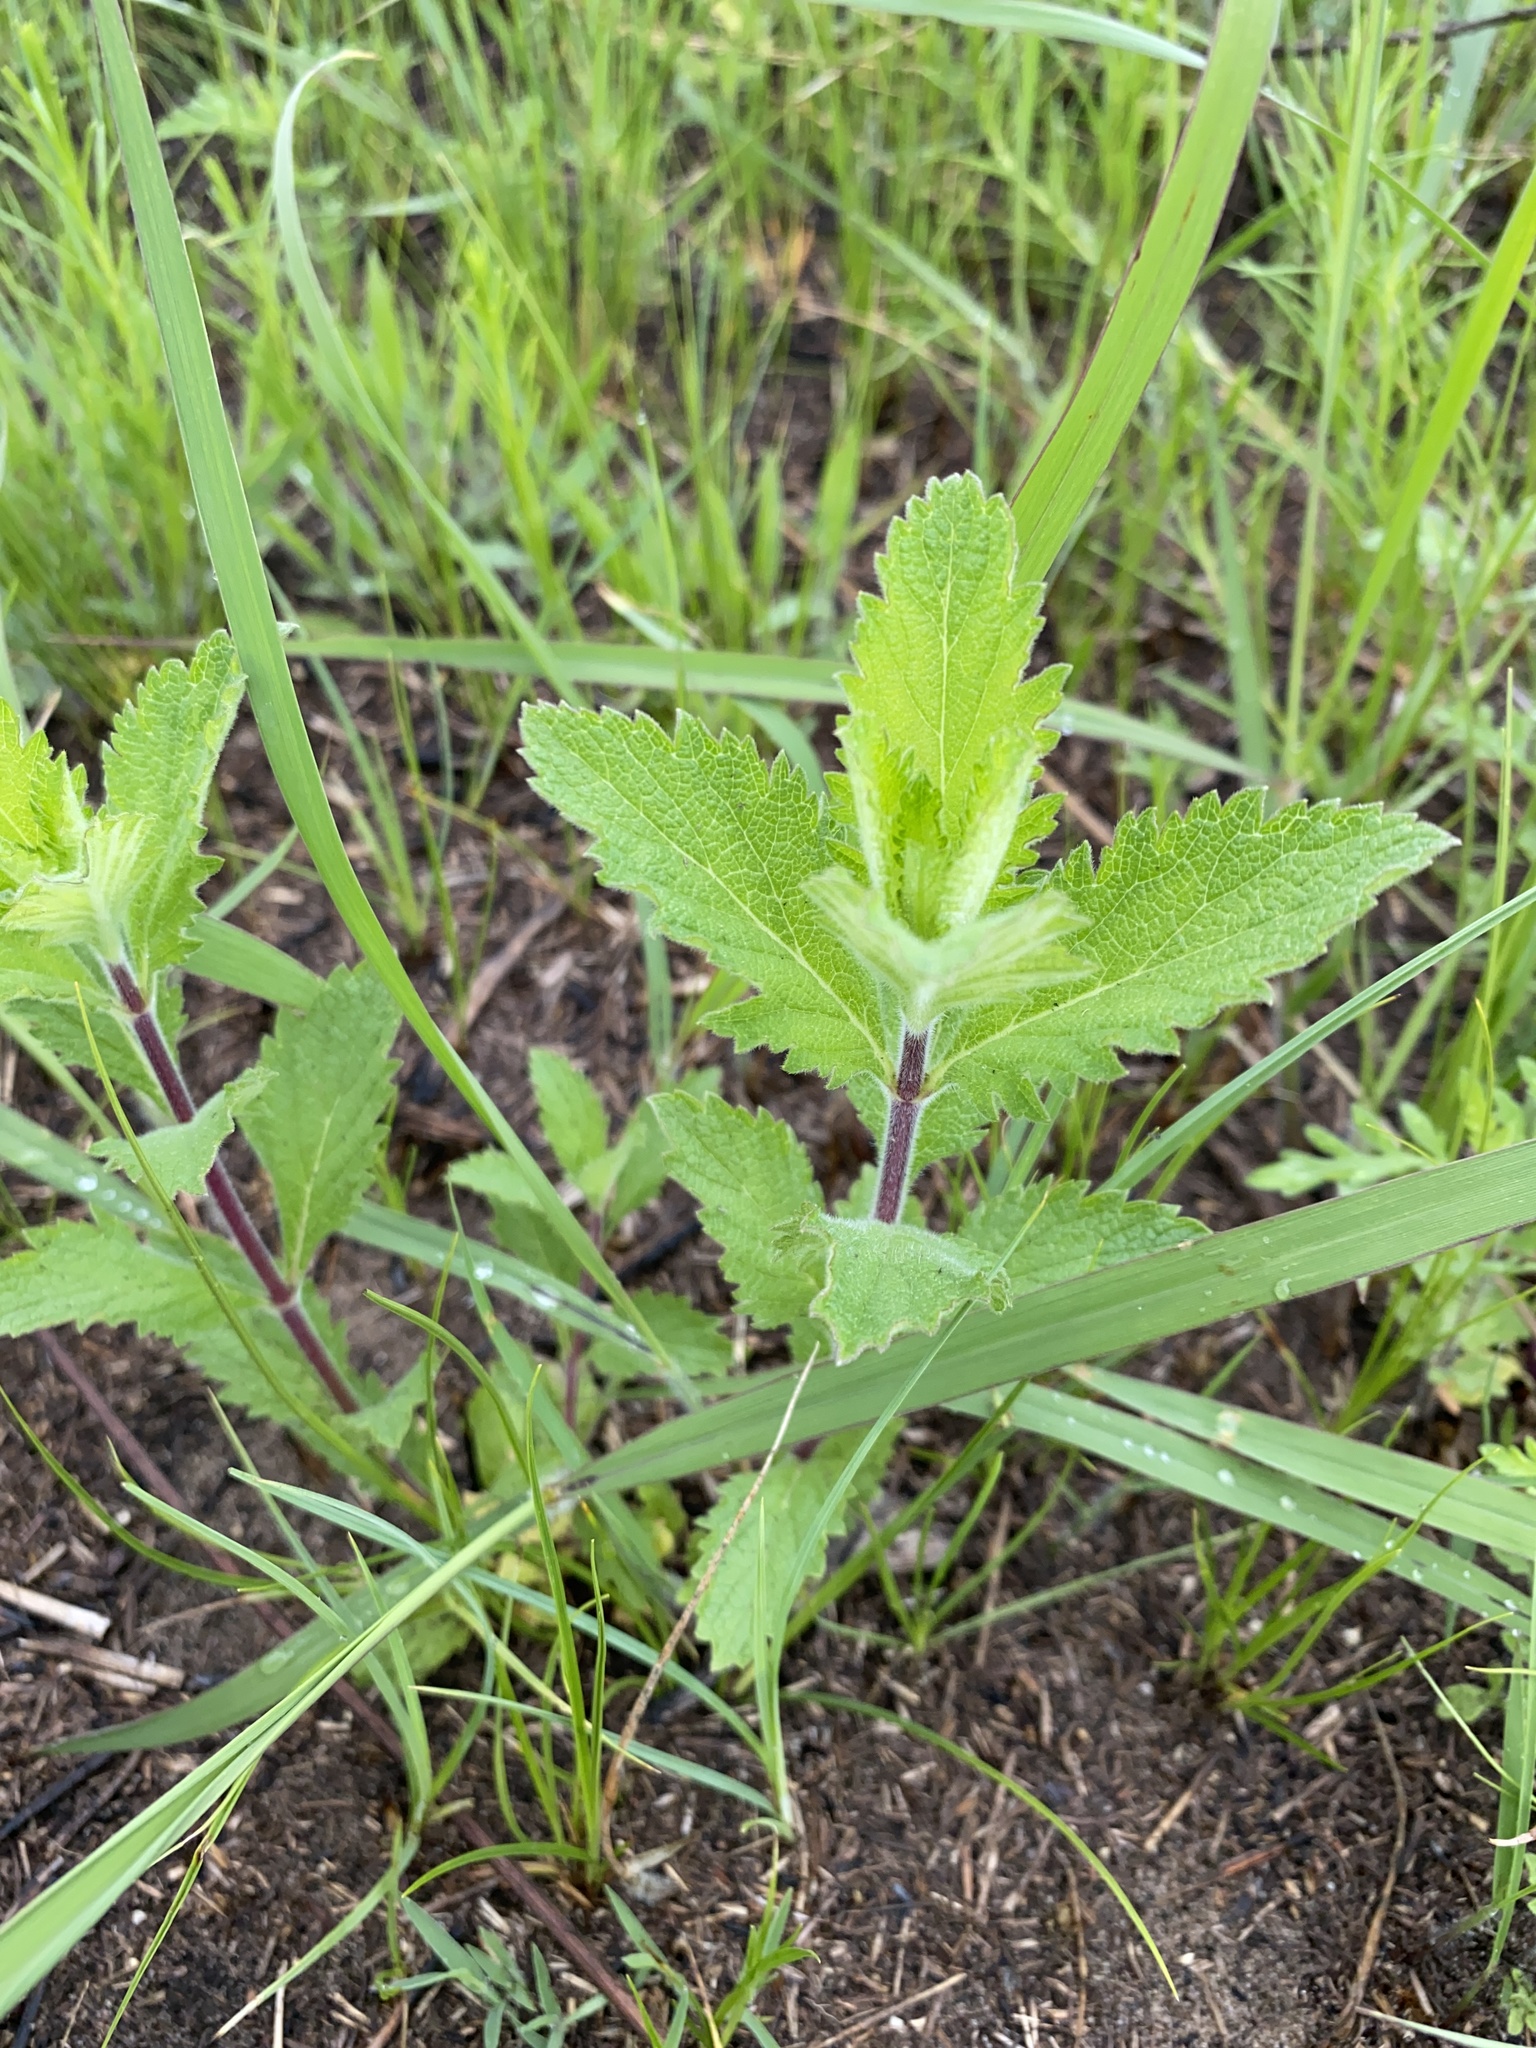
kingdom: Plantae
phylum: Tracheophyta
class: Magnoliopsida
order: Lamiales
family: Verbenaceae
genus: Verbena
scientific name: Verbena stricta
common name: Hoary vervain
